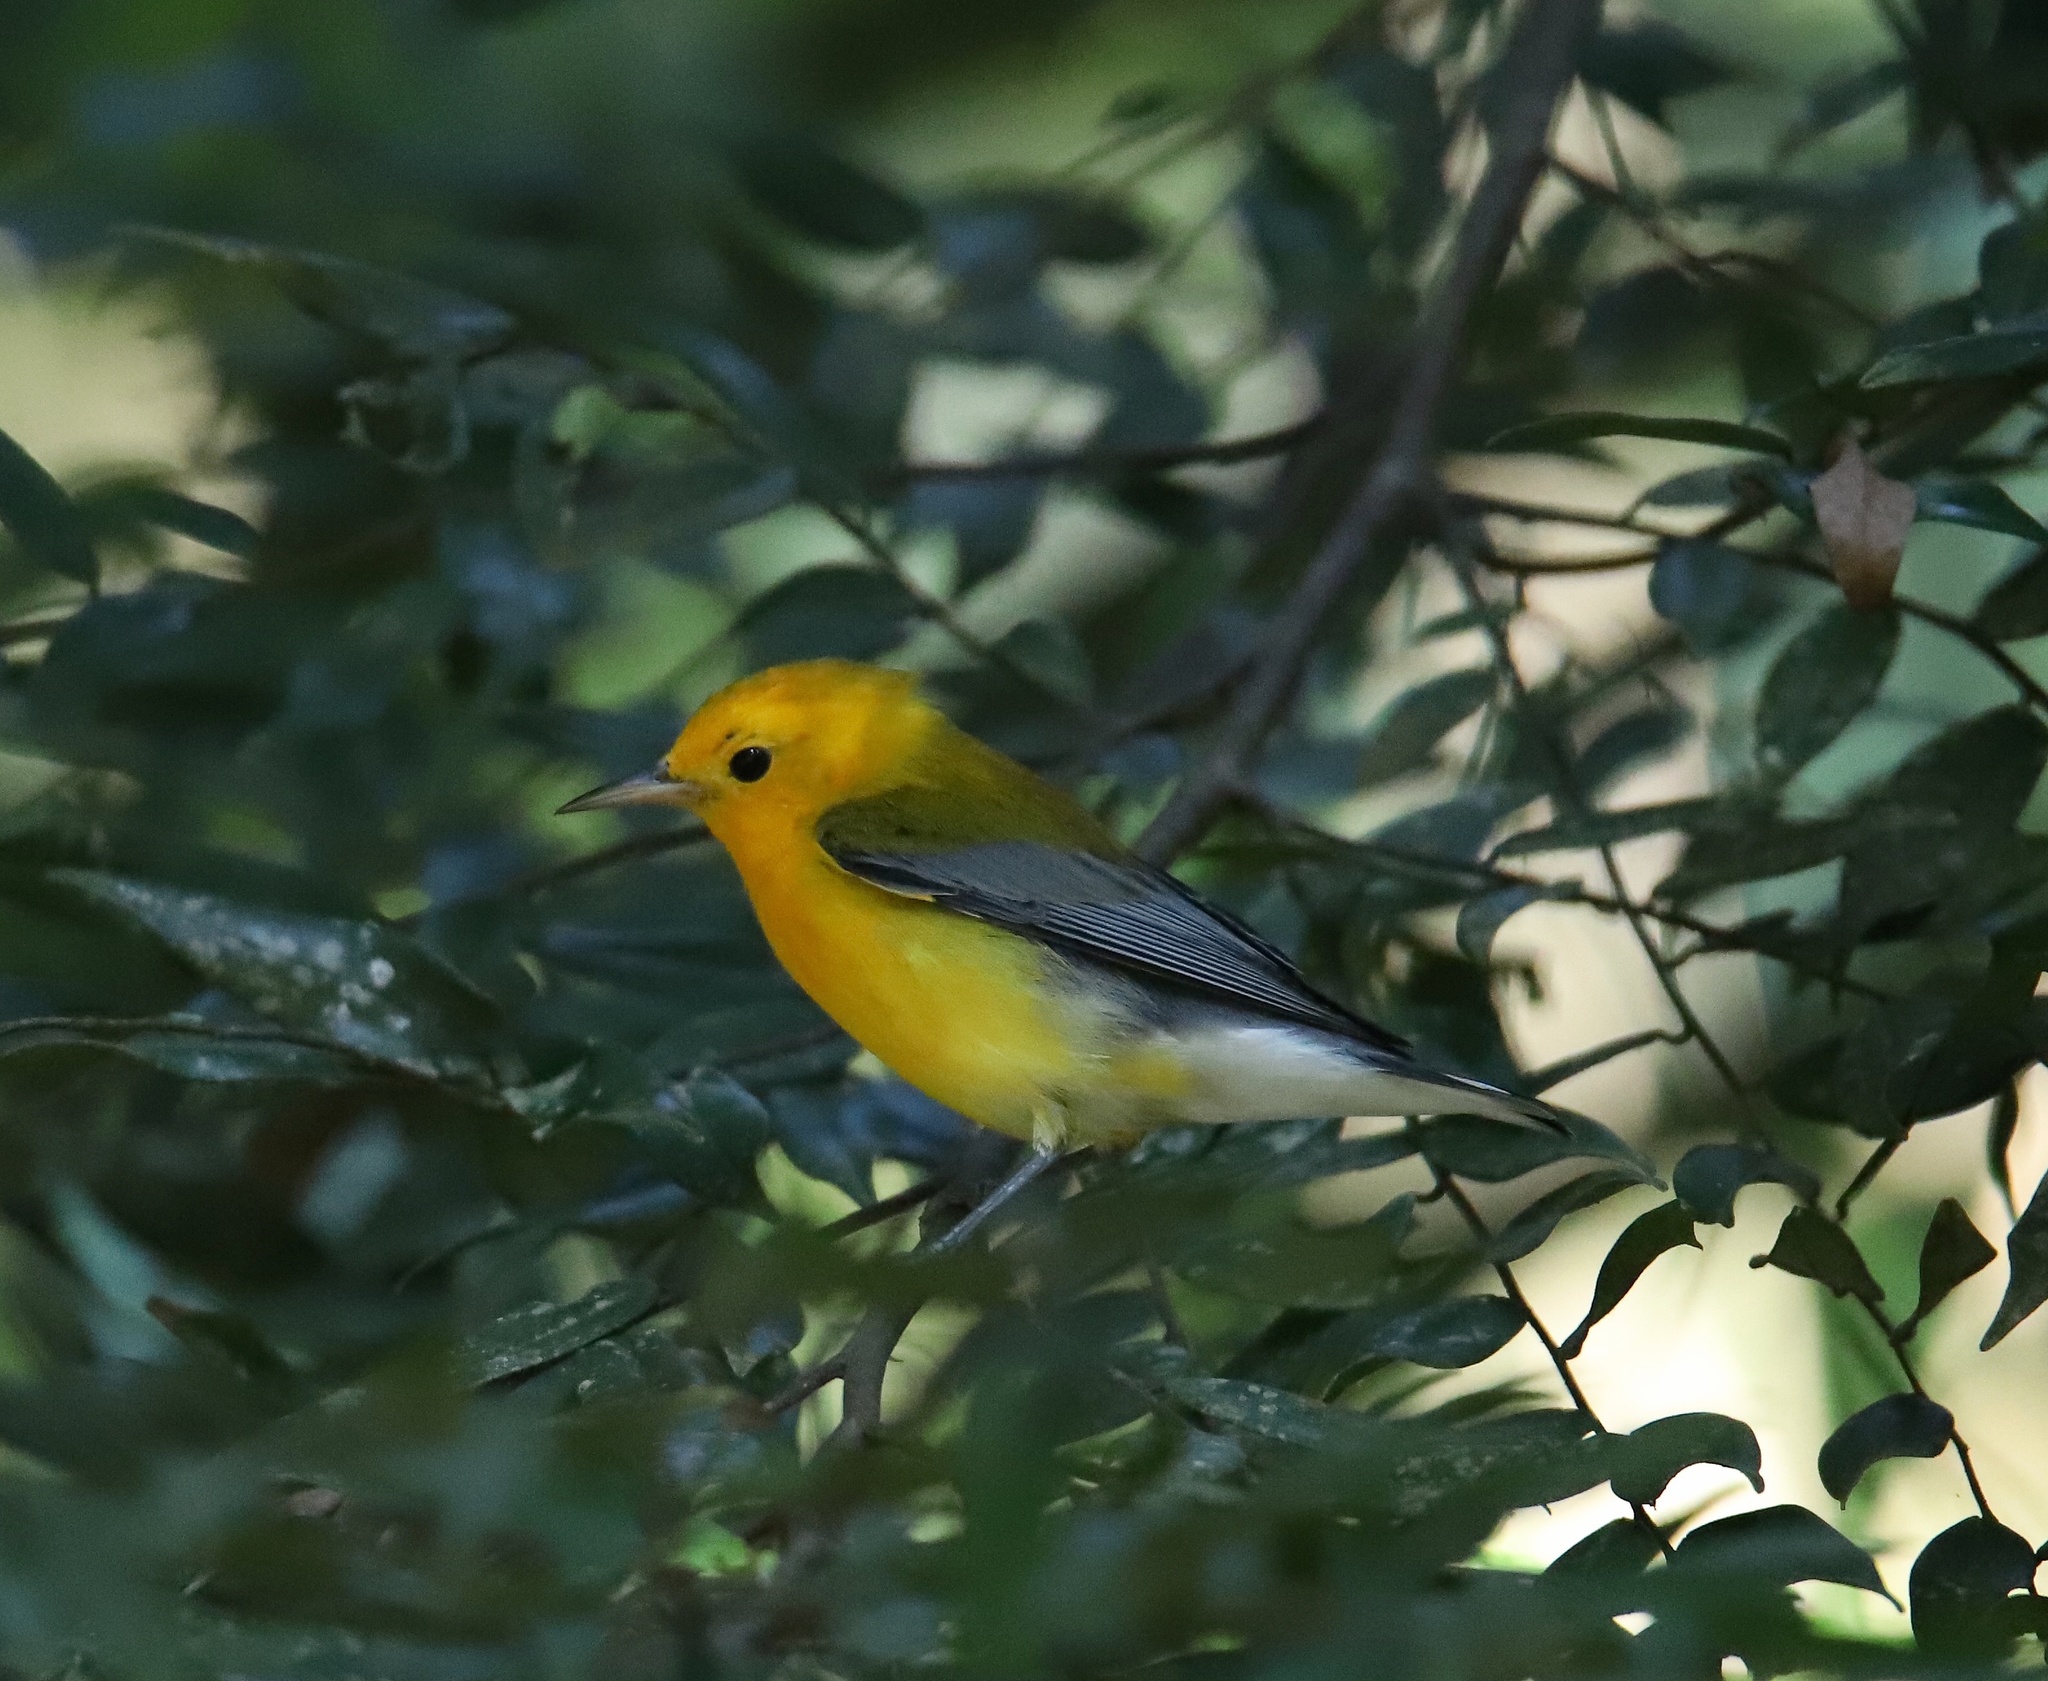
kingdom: Animalia
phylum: Chordata
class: Aves
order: Passeriformes
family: Parulidae
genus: Protonotaria
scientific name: Protonotaria citrea
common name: Prothonotary warbler
